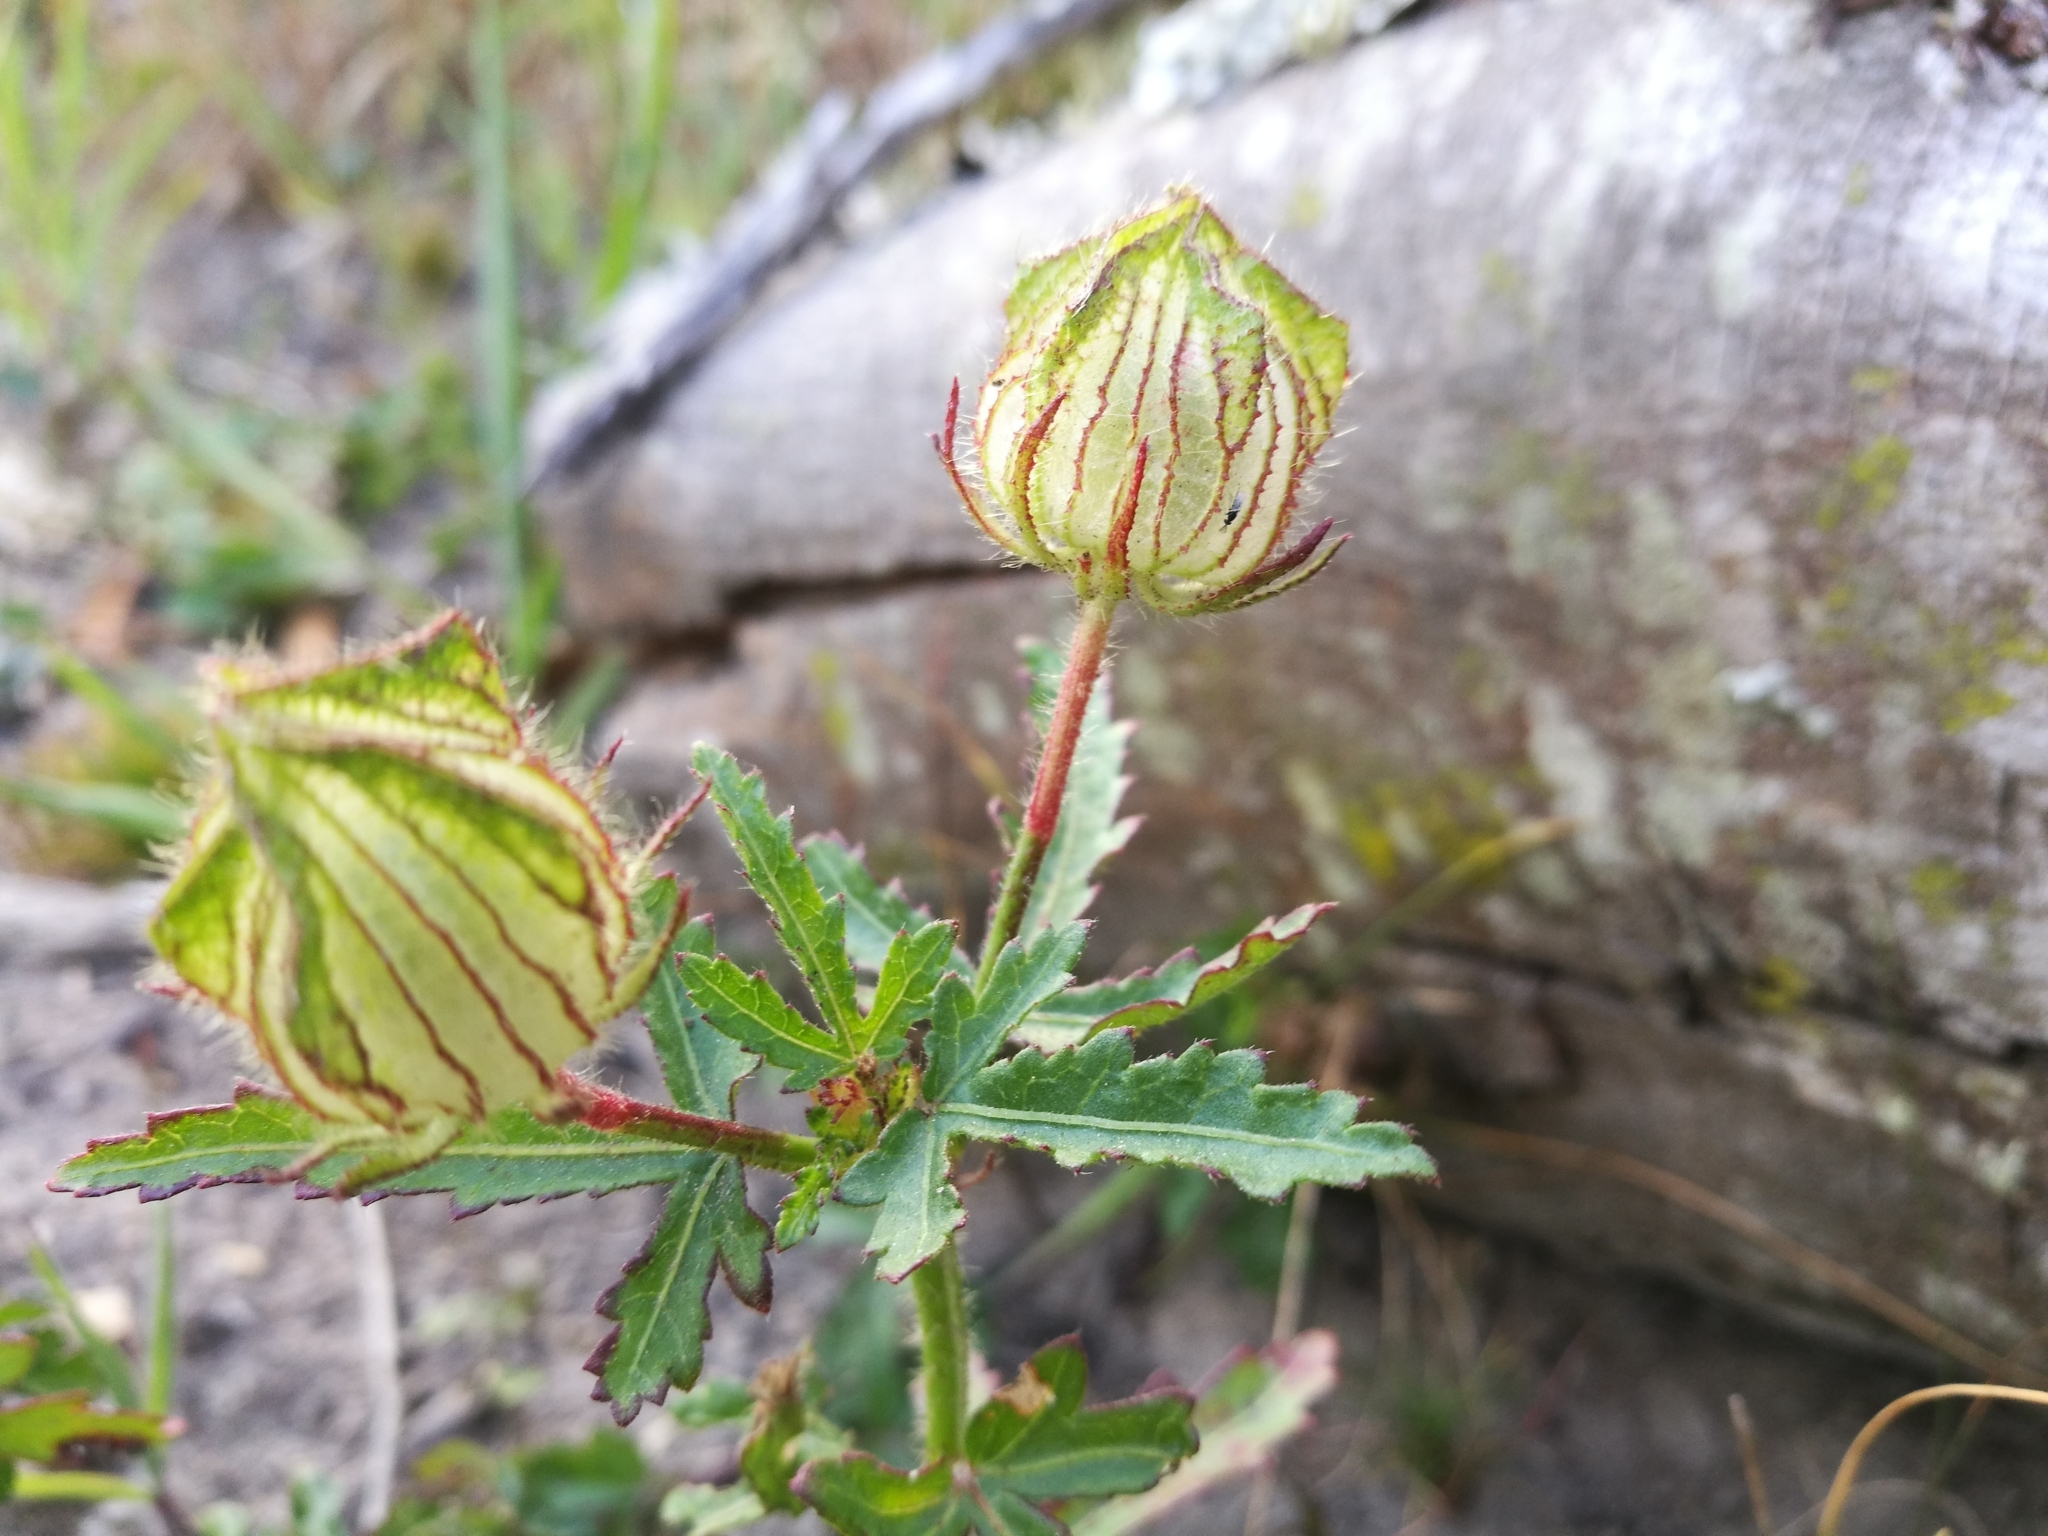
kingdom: Plantae
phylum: Tracheophyta
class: Magnoliopsida
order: Malvales
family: Malvaceae
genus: Hibiscus
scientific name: Hibiscus trionum
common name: Bladder ketmia
